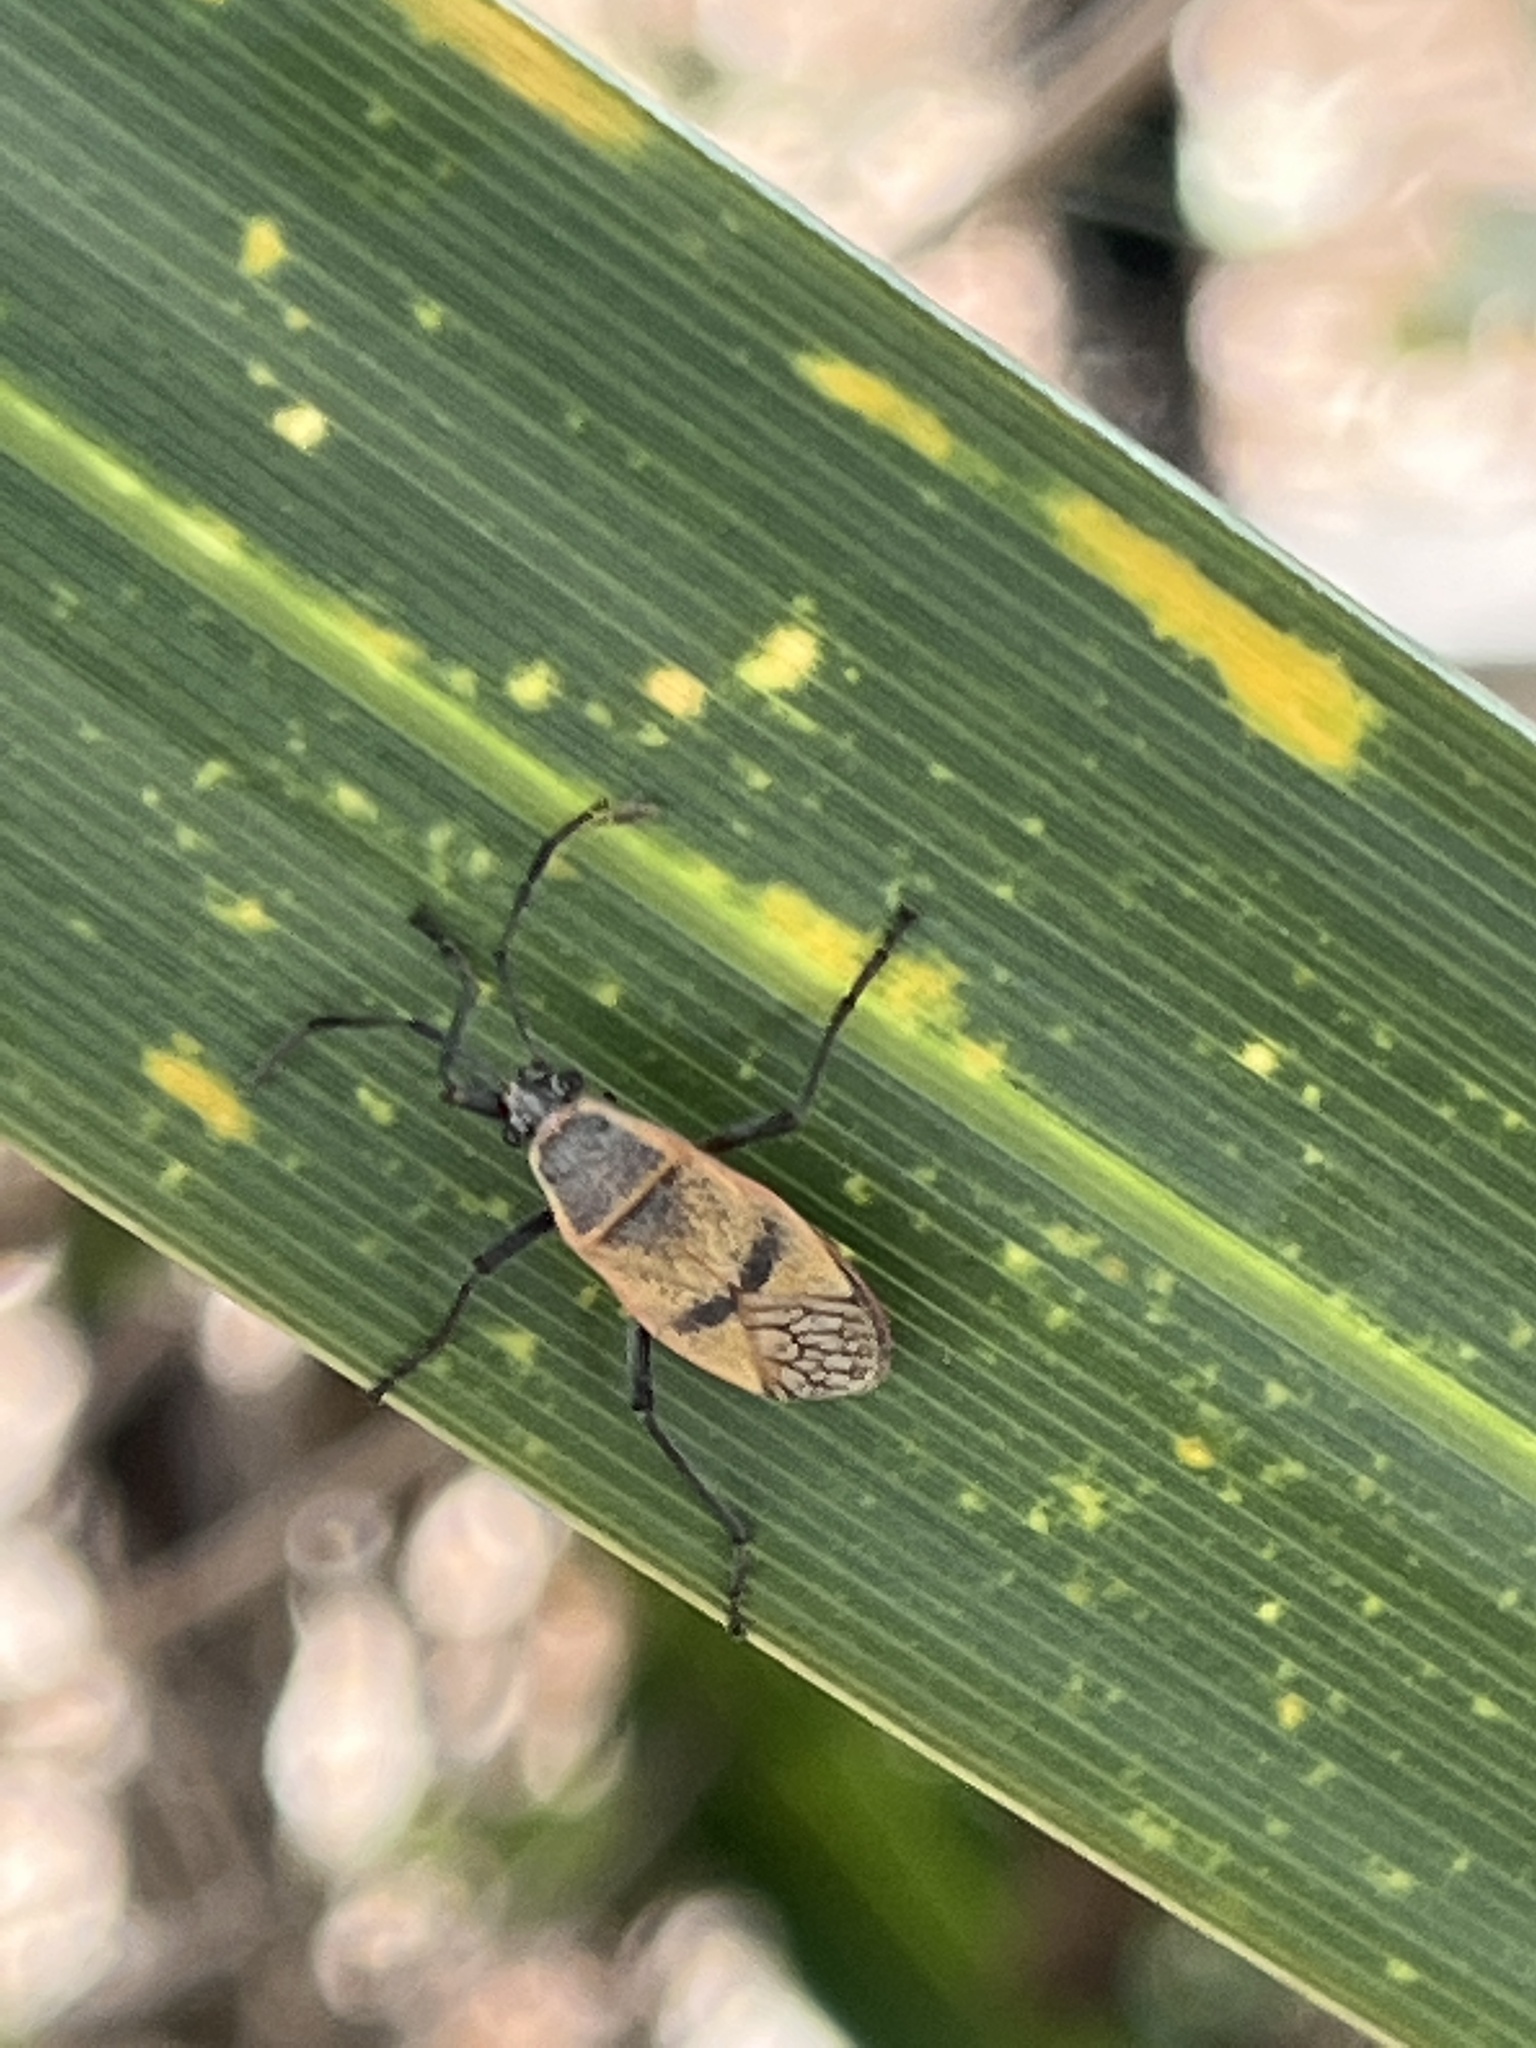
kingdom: Animalia
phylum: Arthropoda
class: Insecta
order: Hemiptera
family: Largidae
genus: Largus
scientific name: Largus maculatus
